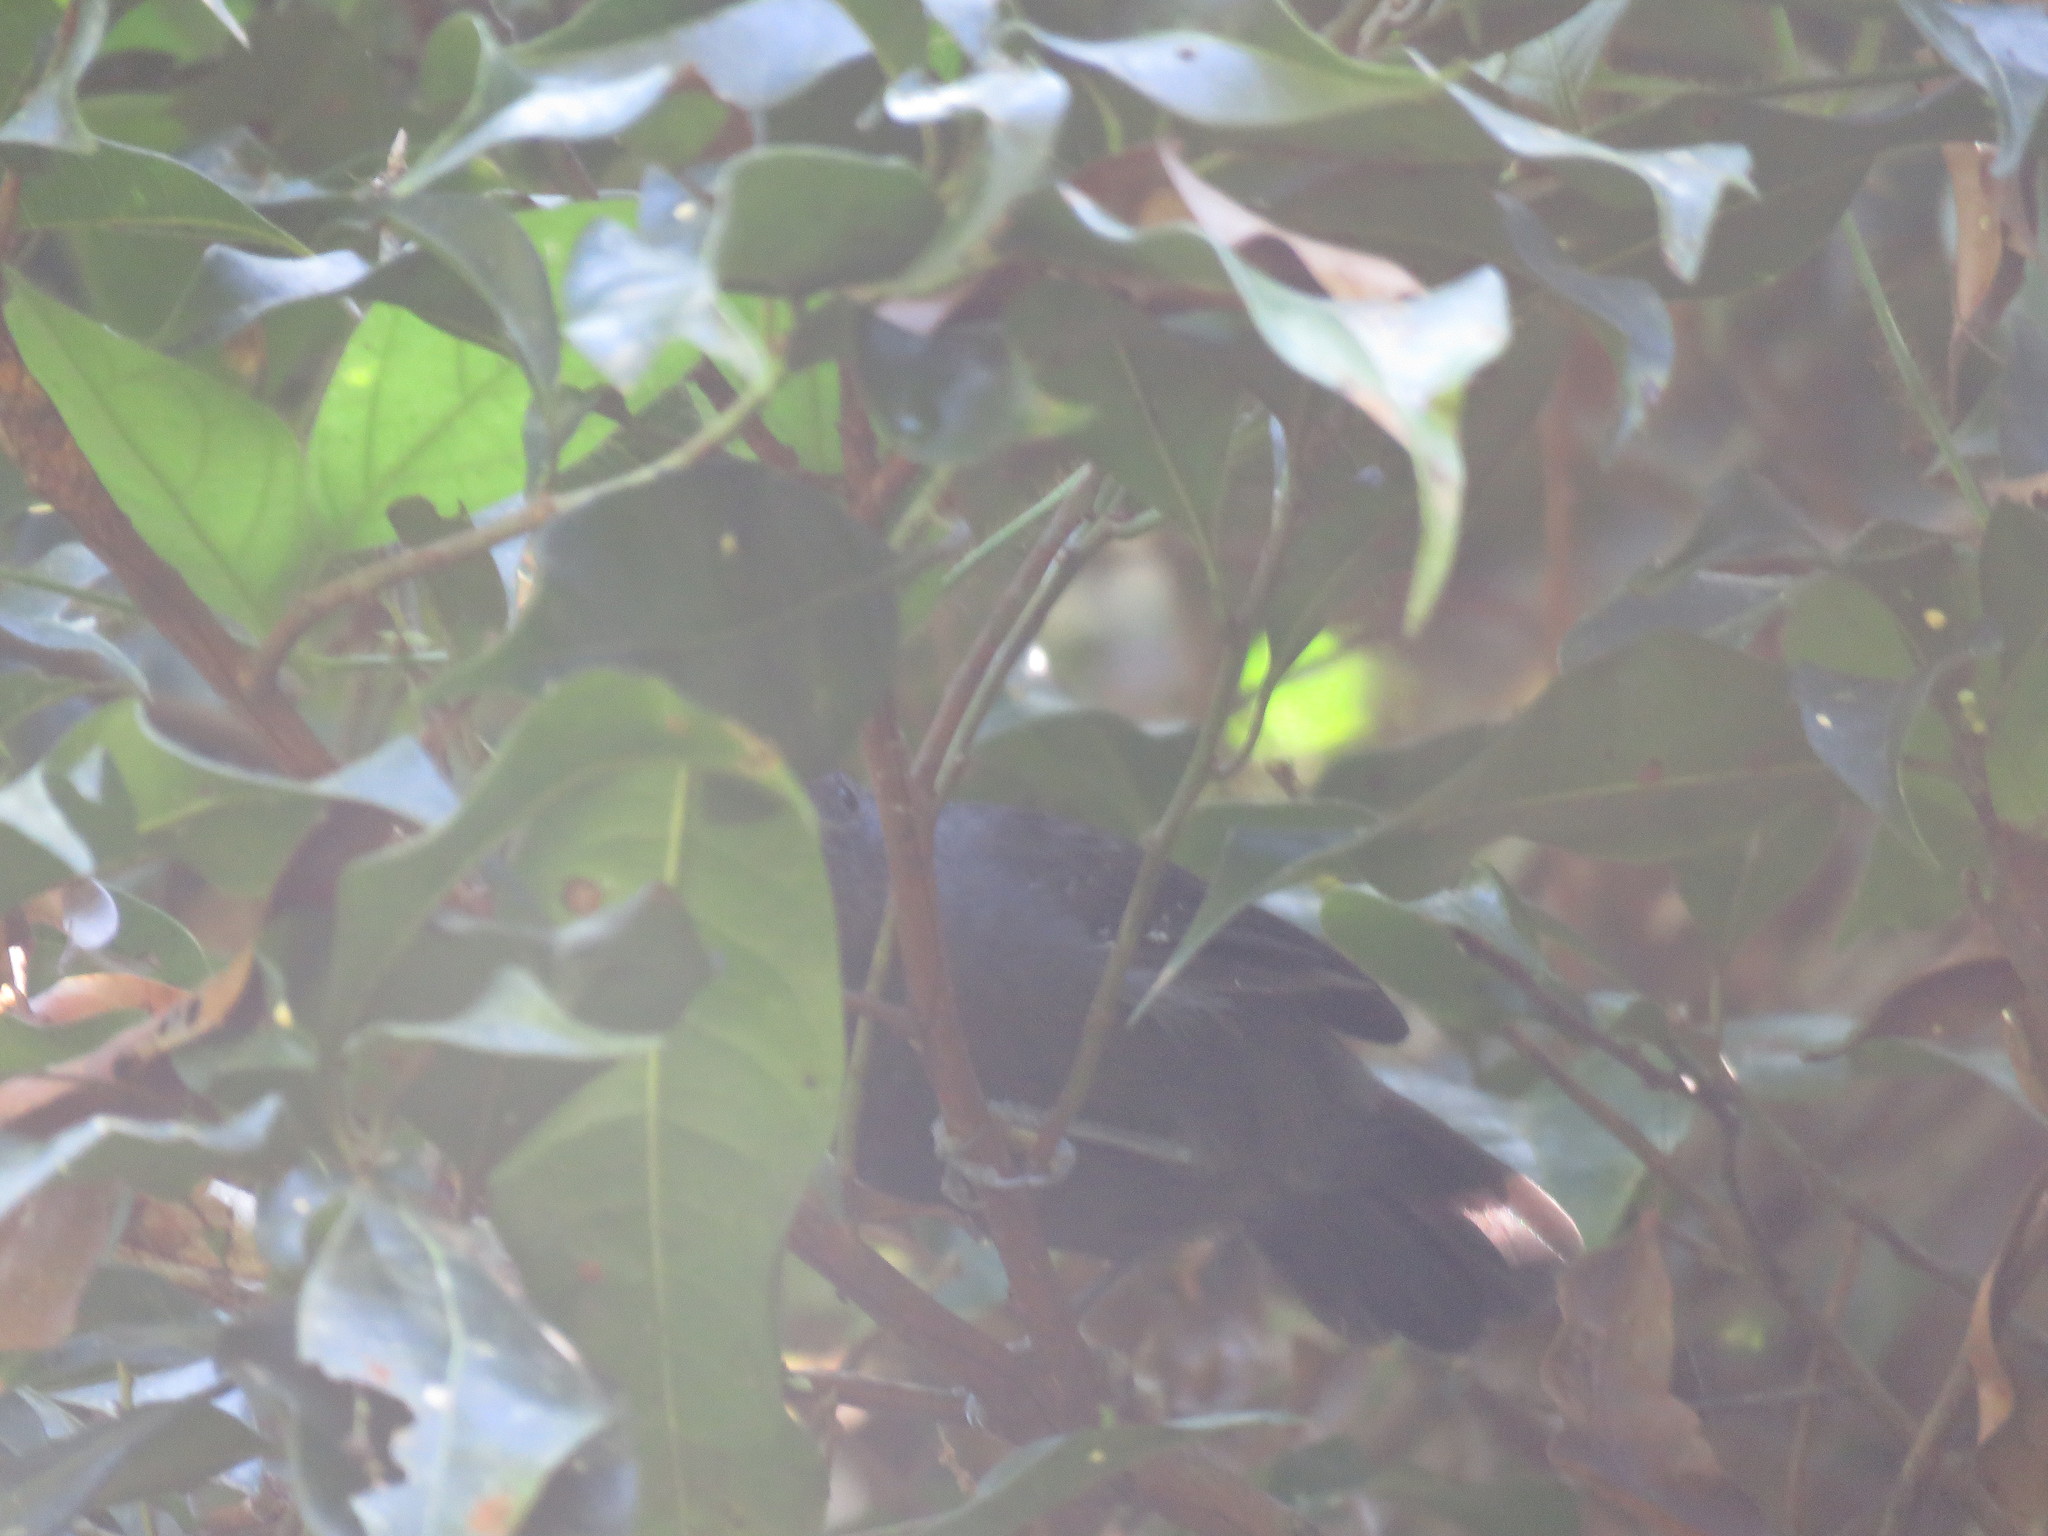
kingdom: Animalia
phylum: Chordata
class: Aves
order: Passeriformes
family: Thamnophilidae
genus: Schistocichla
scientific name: Schistocichla humaythae
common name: Humaita antbird
